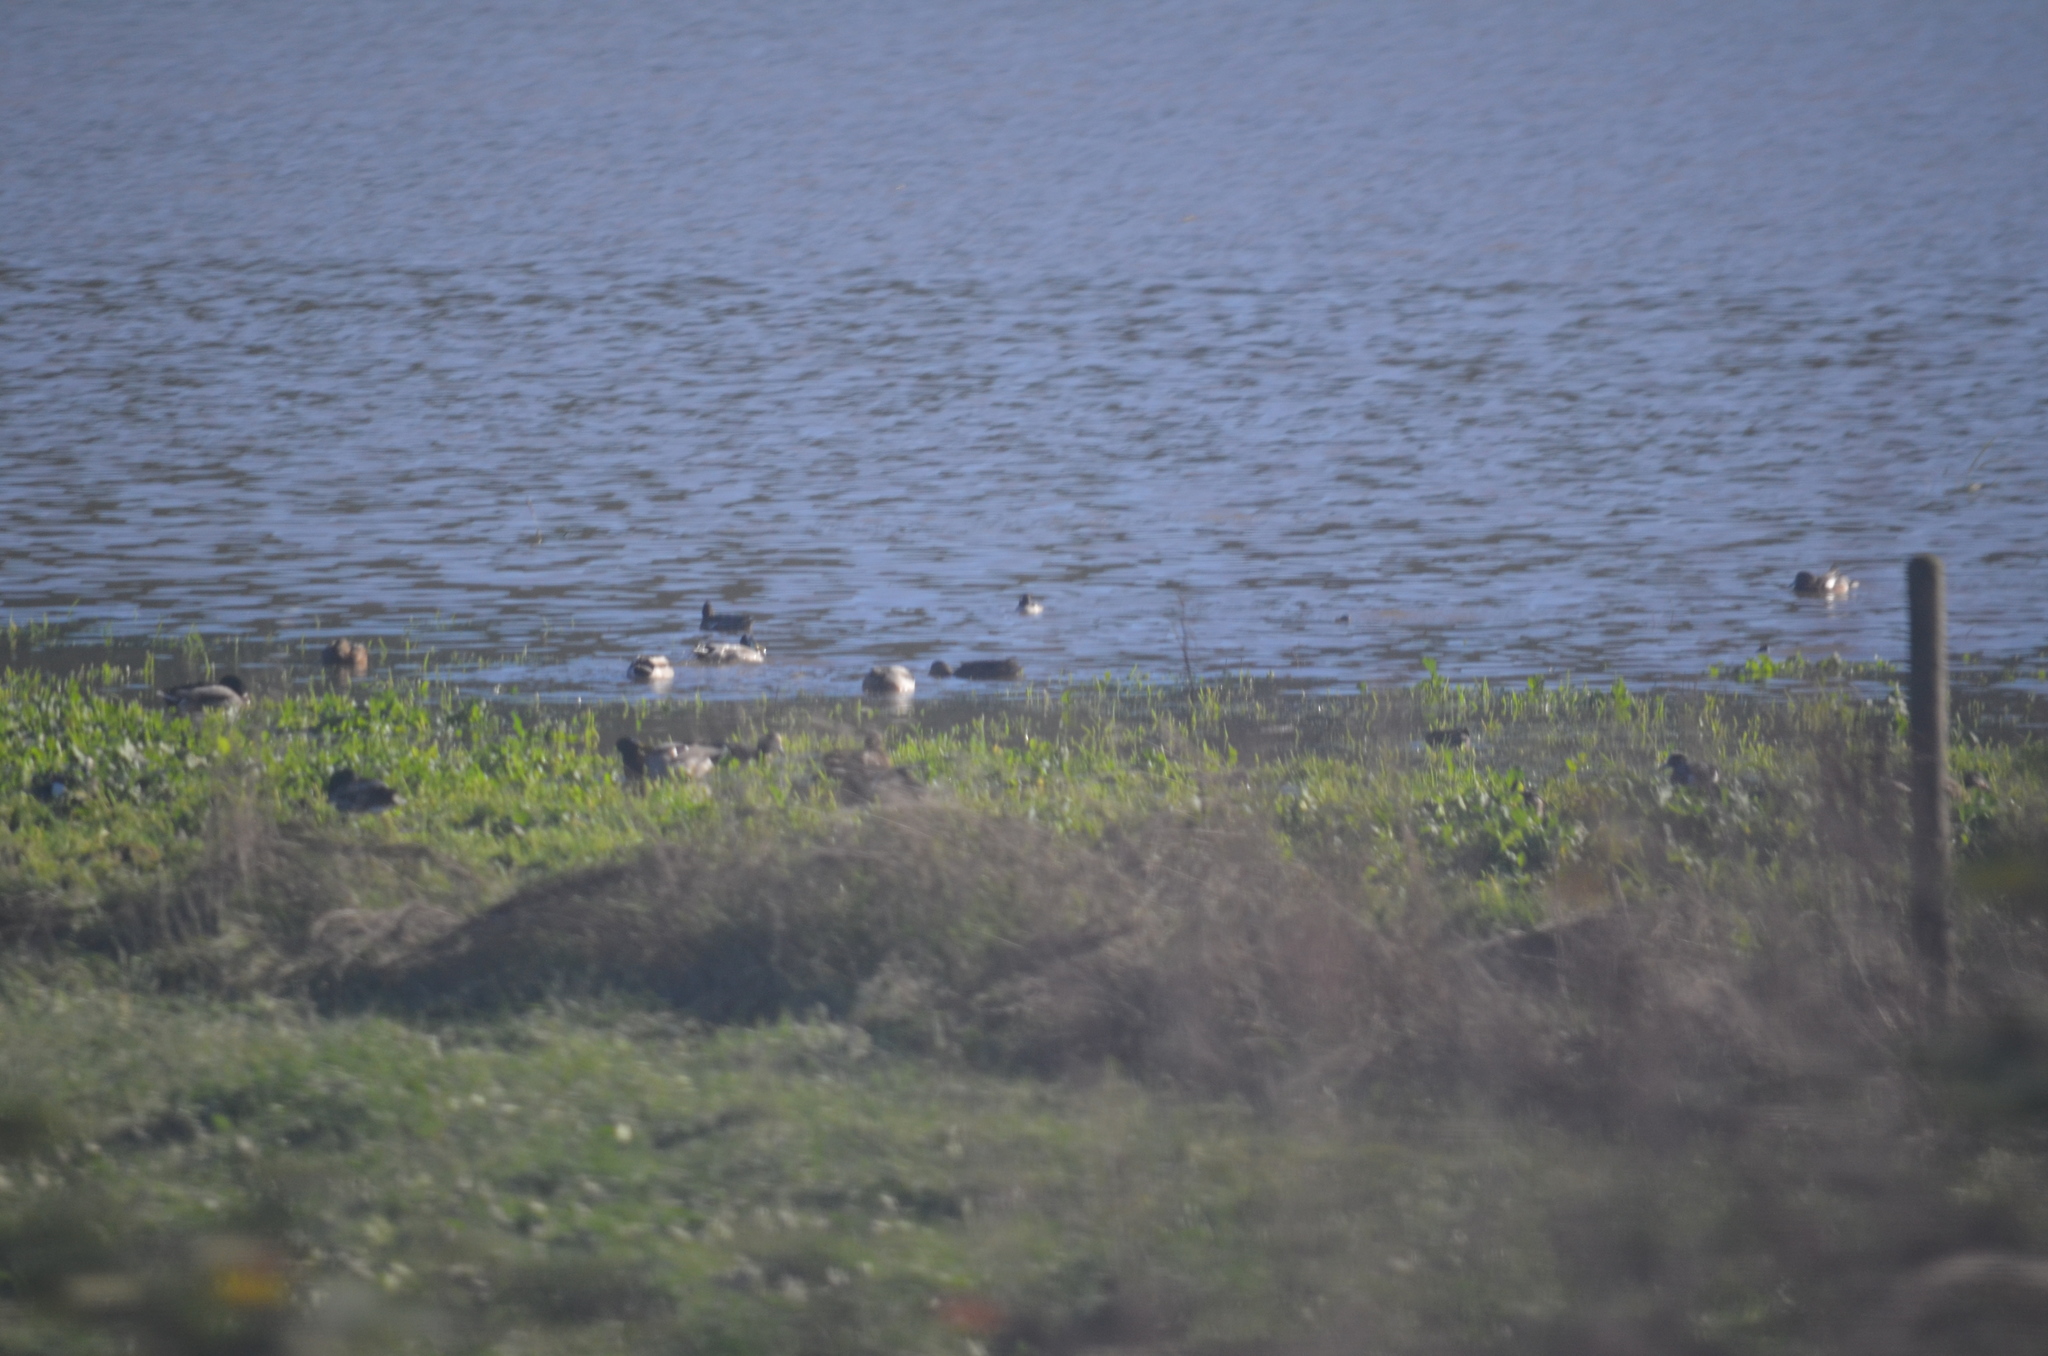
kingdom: Animalia
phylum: Chordata
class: Aves
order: Anseriformes
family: Anatidae
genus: Mareca
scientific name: Mareca americana
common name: American wigeon
